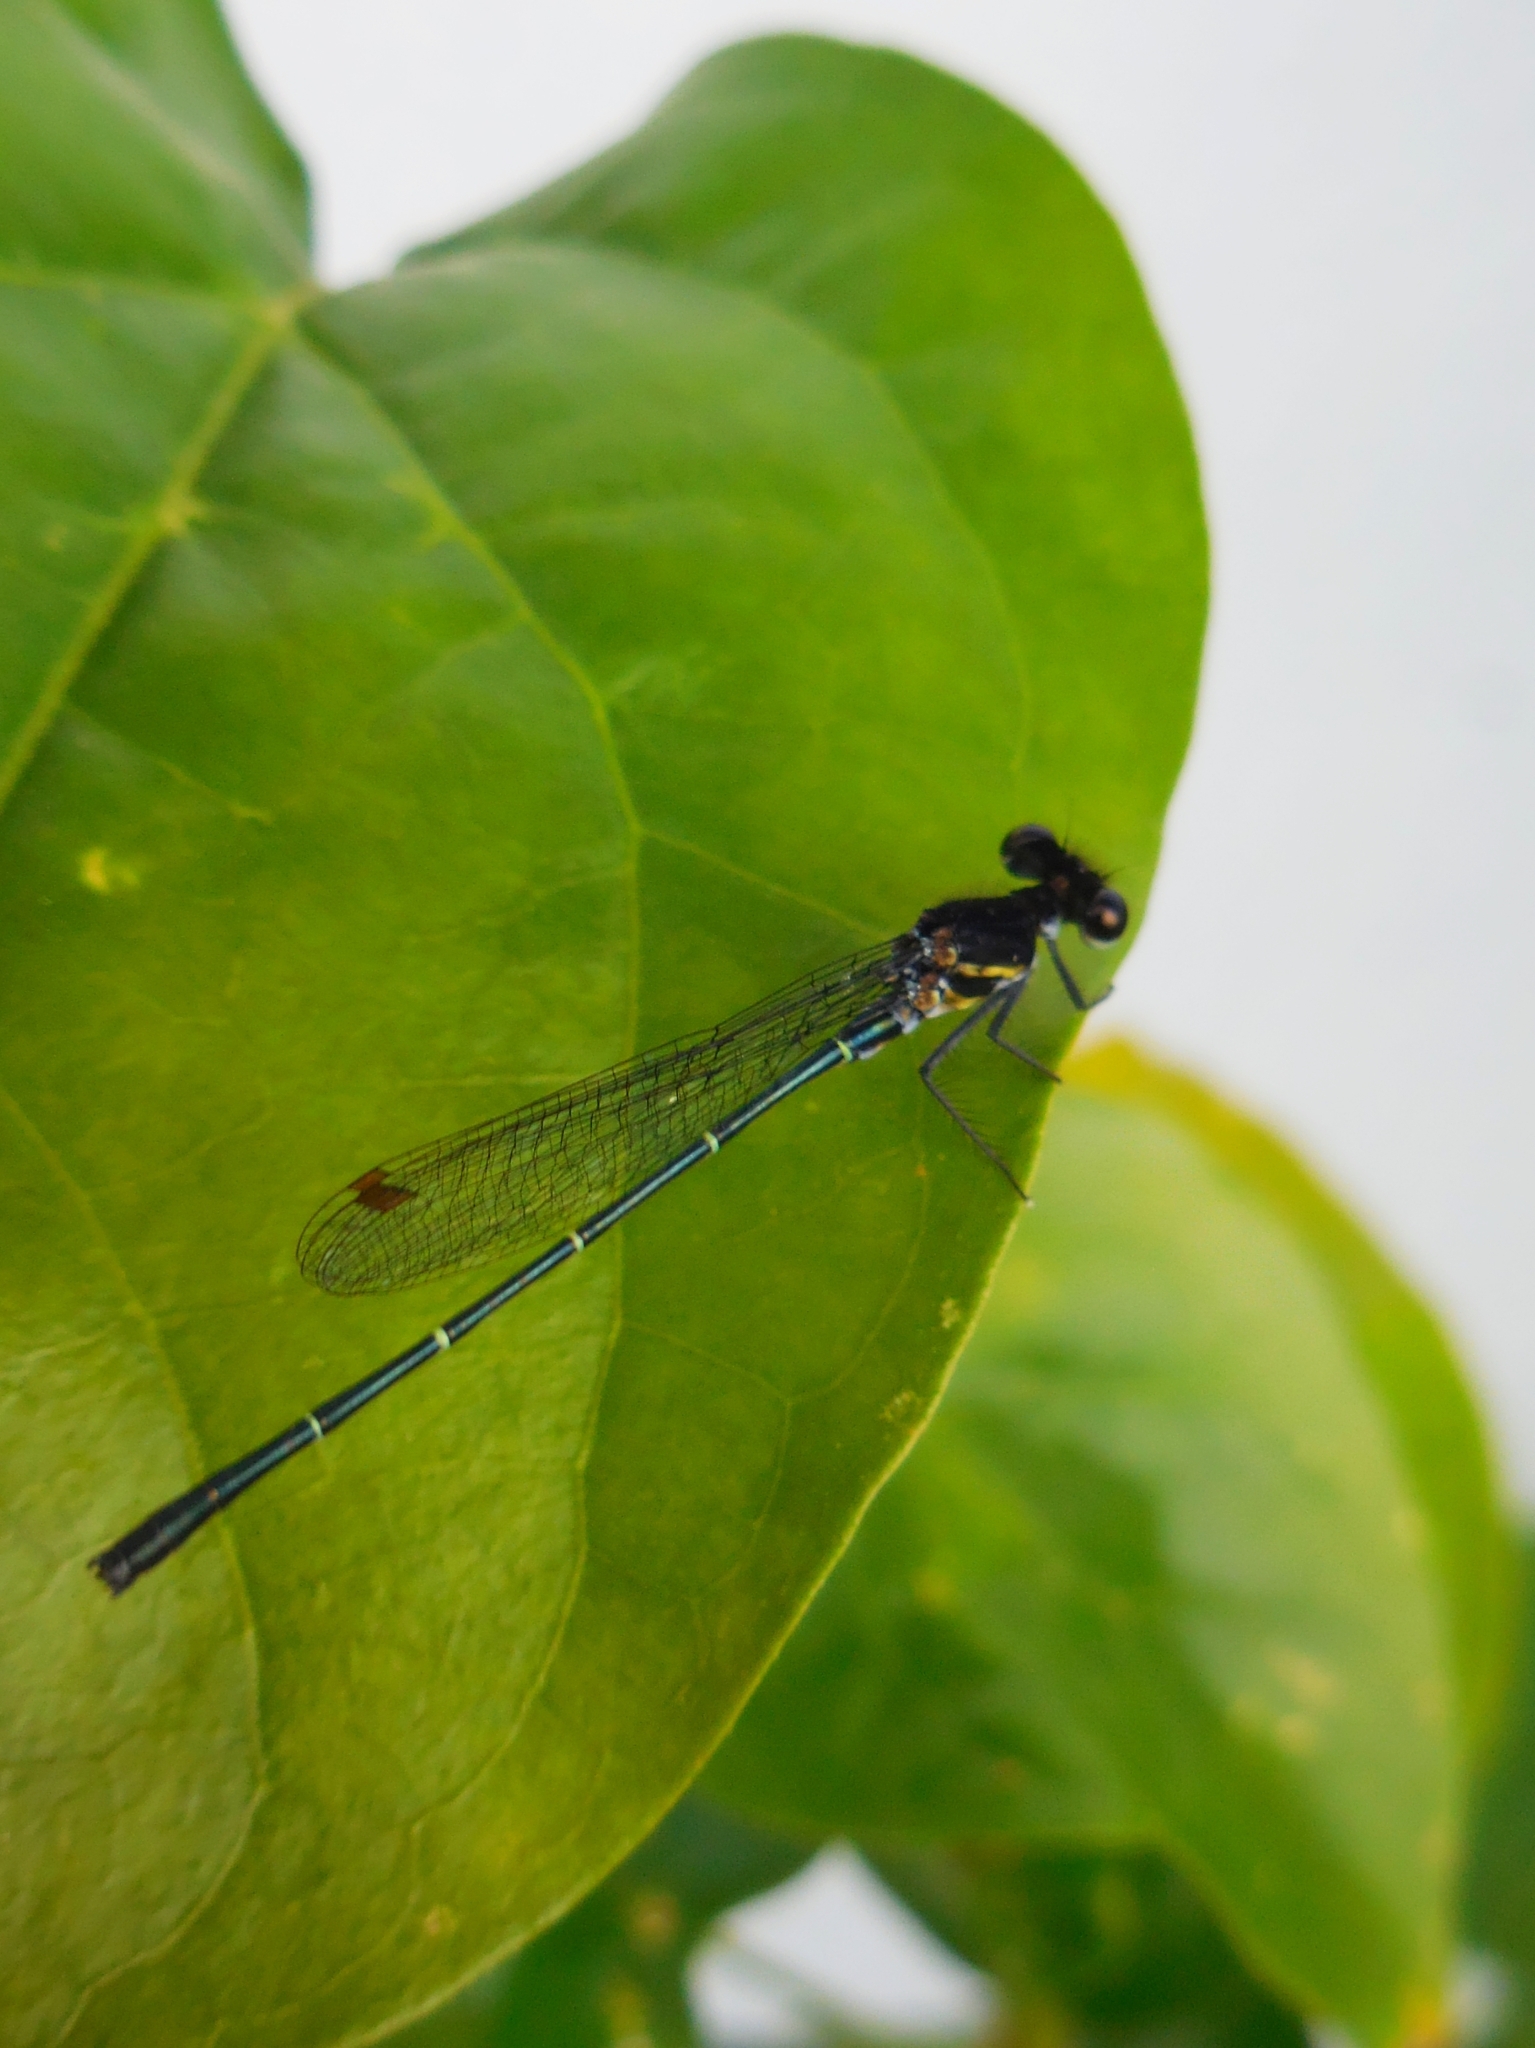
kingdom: Animalia
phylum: Arthropoda
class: Insecta
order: Odonata
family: Platycnemididae
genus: Onychargia
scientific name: Onychargia atrocyana
